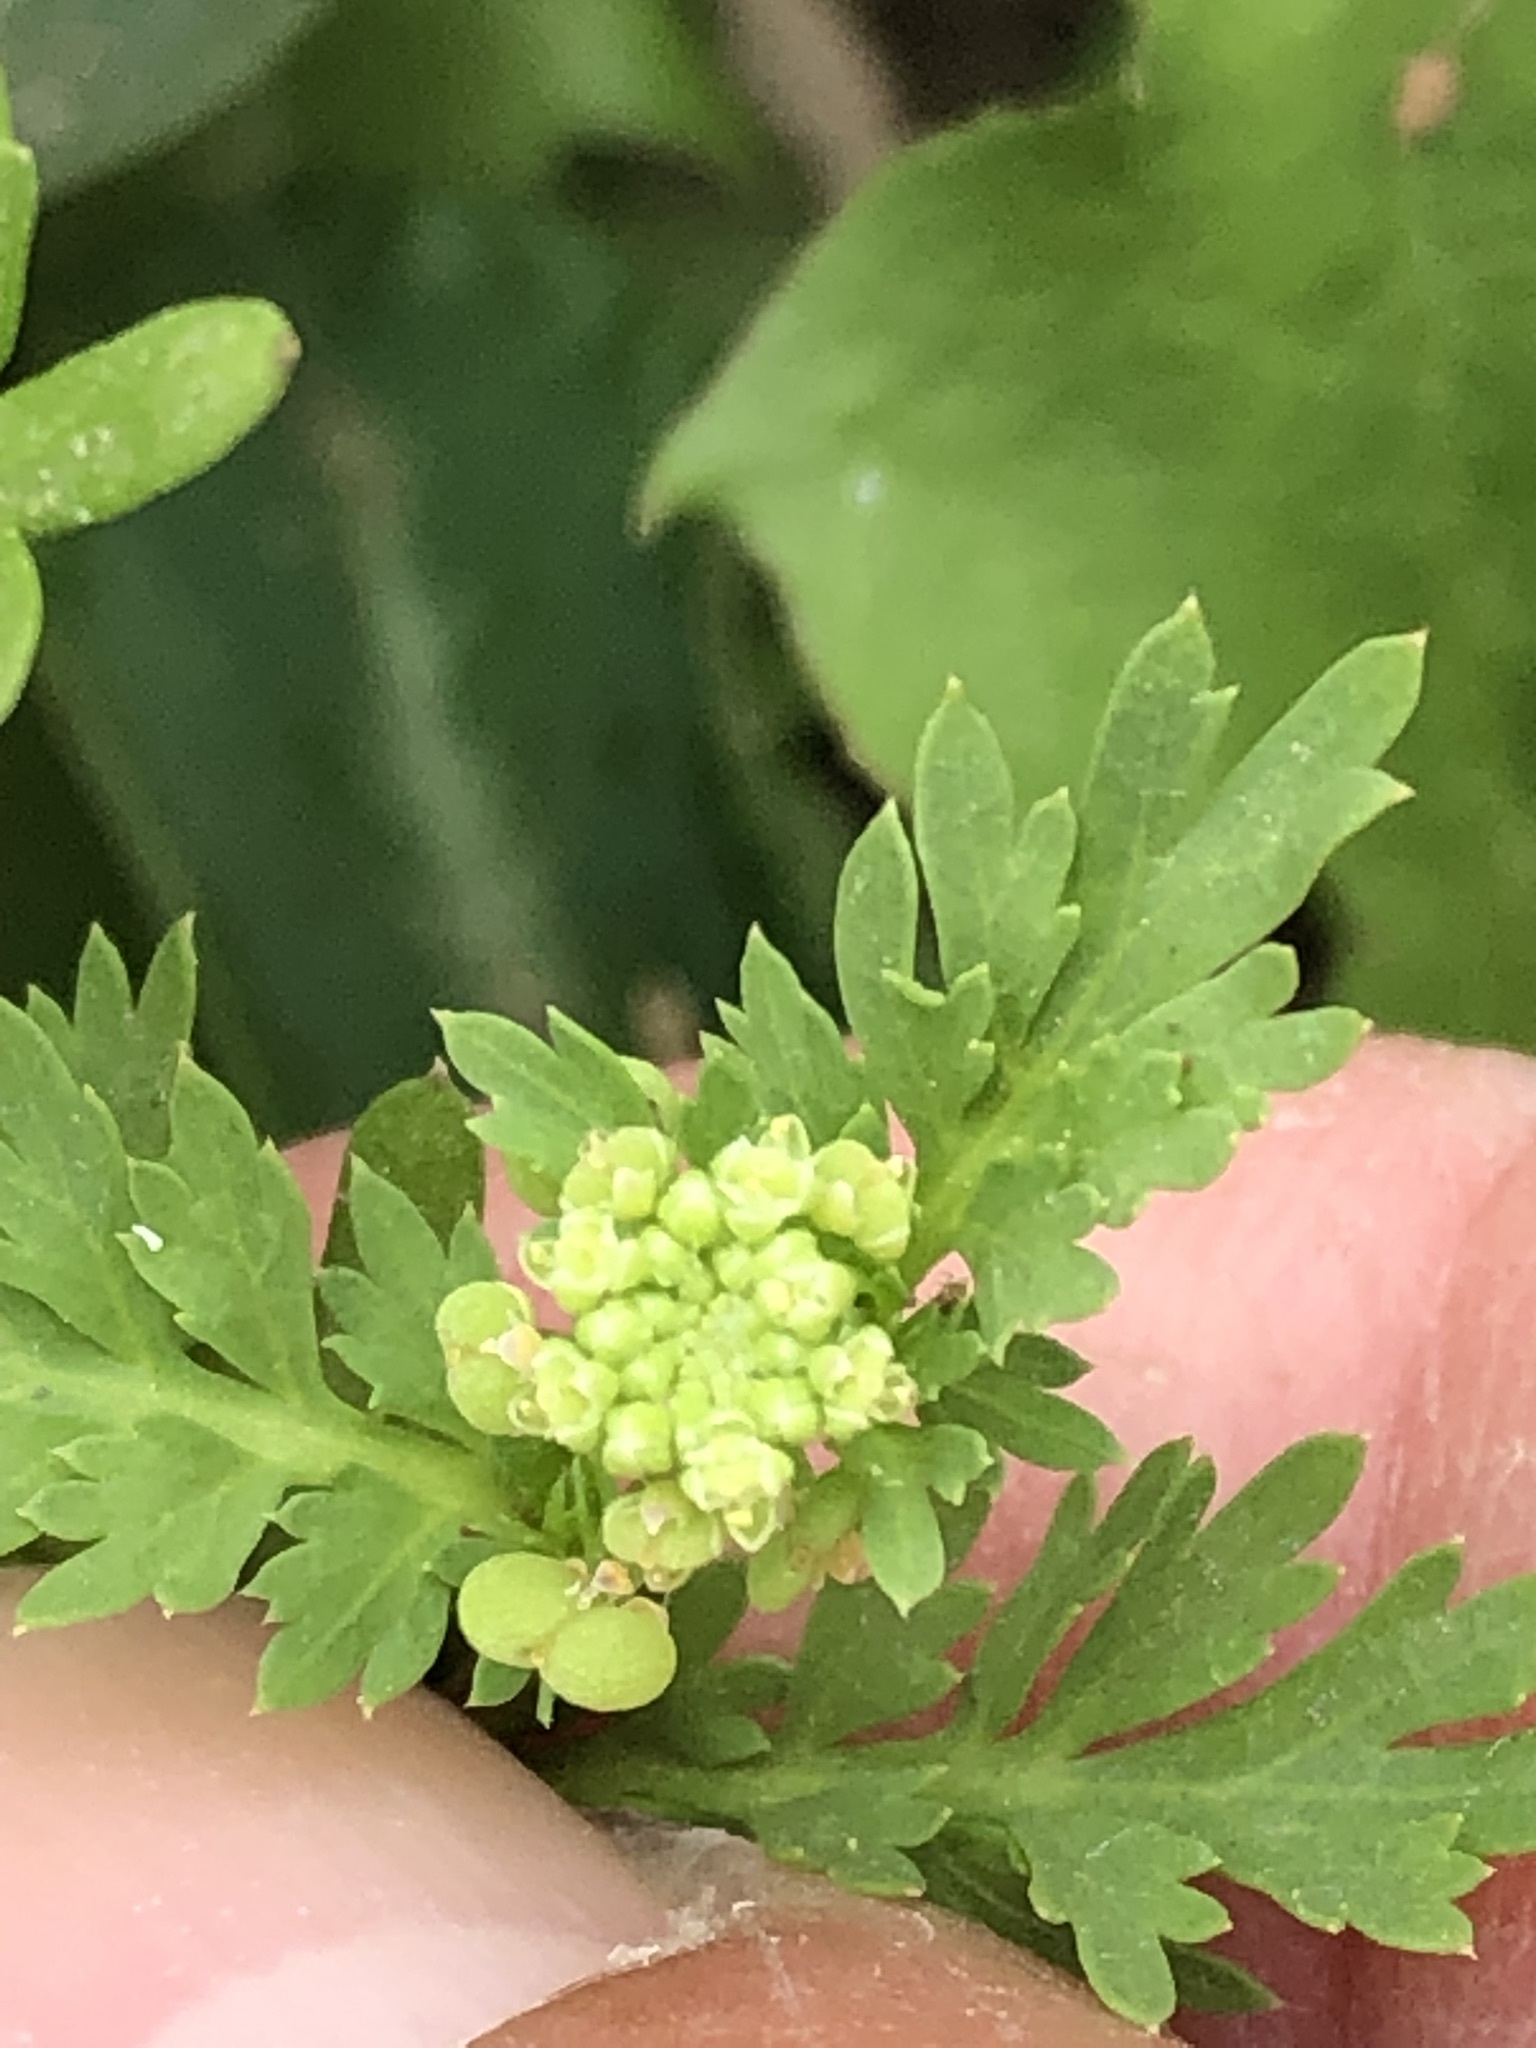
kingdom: Plantae
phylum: Tracheophyta
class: Magnoliopsida
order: Brassicales
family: Brassicaceae
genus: Lepidium
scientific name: Lepidium didymum
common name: Lesser swinecress
